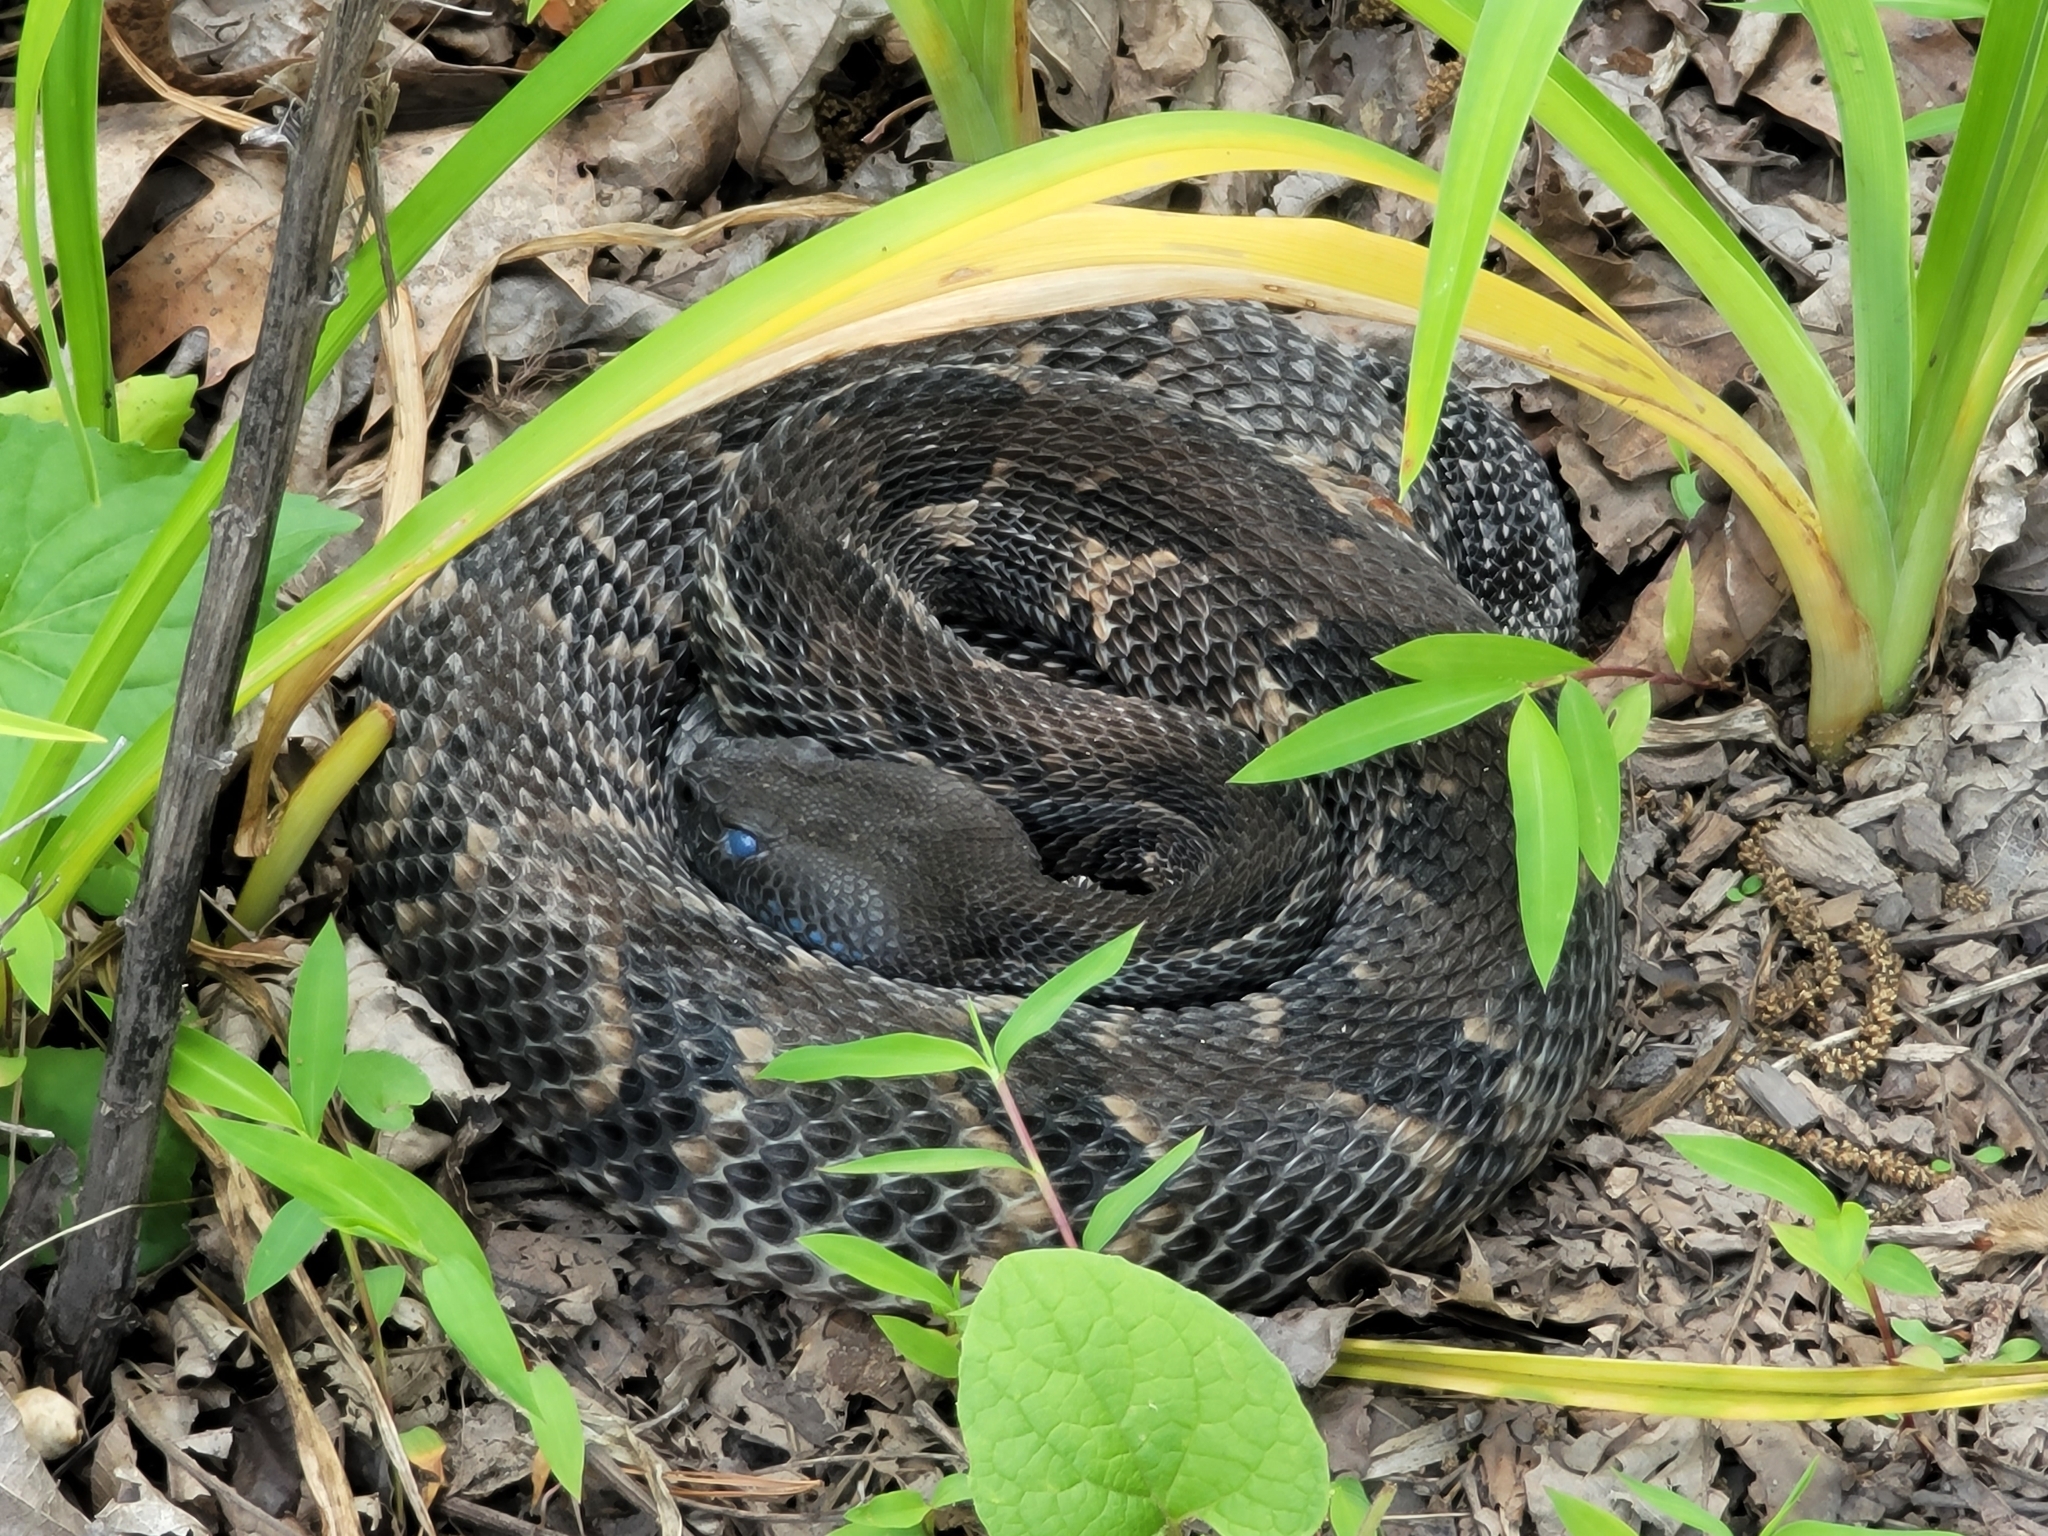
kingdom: Animalia
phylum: Chordata
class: Squamata
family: Viperidae
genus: Crotalus
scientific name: Crotalus horridus
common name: Timber rattlesnake
